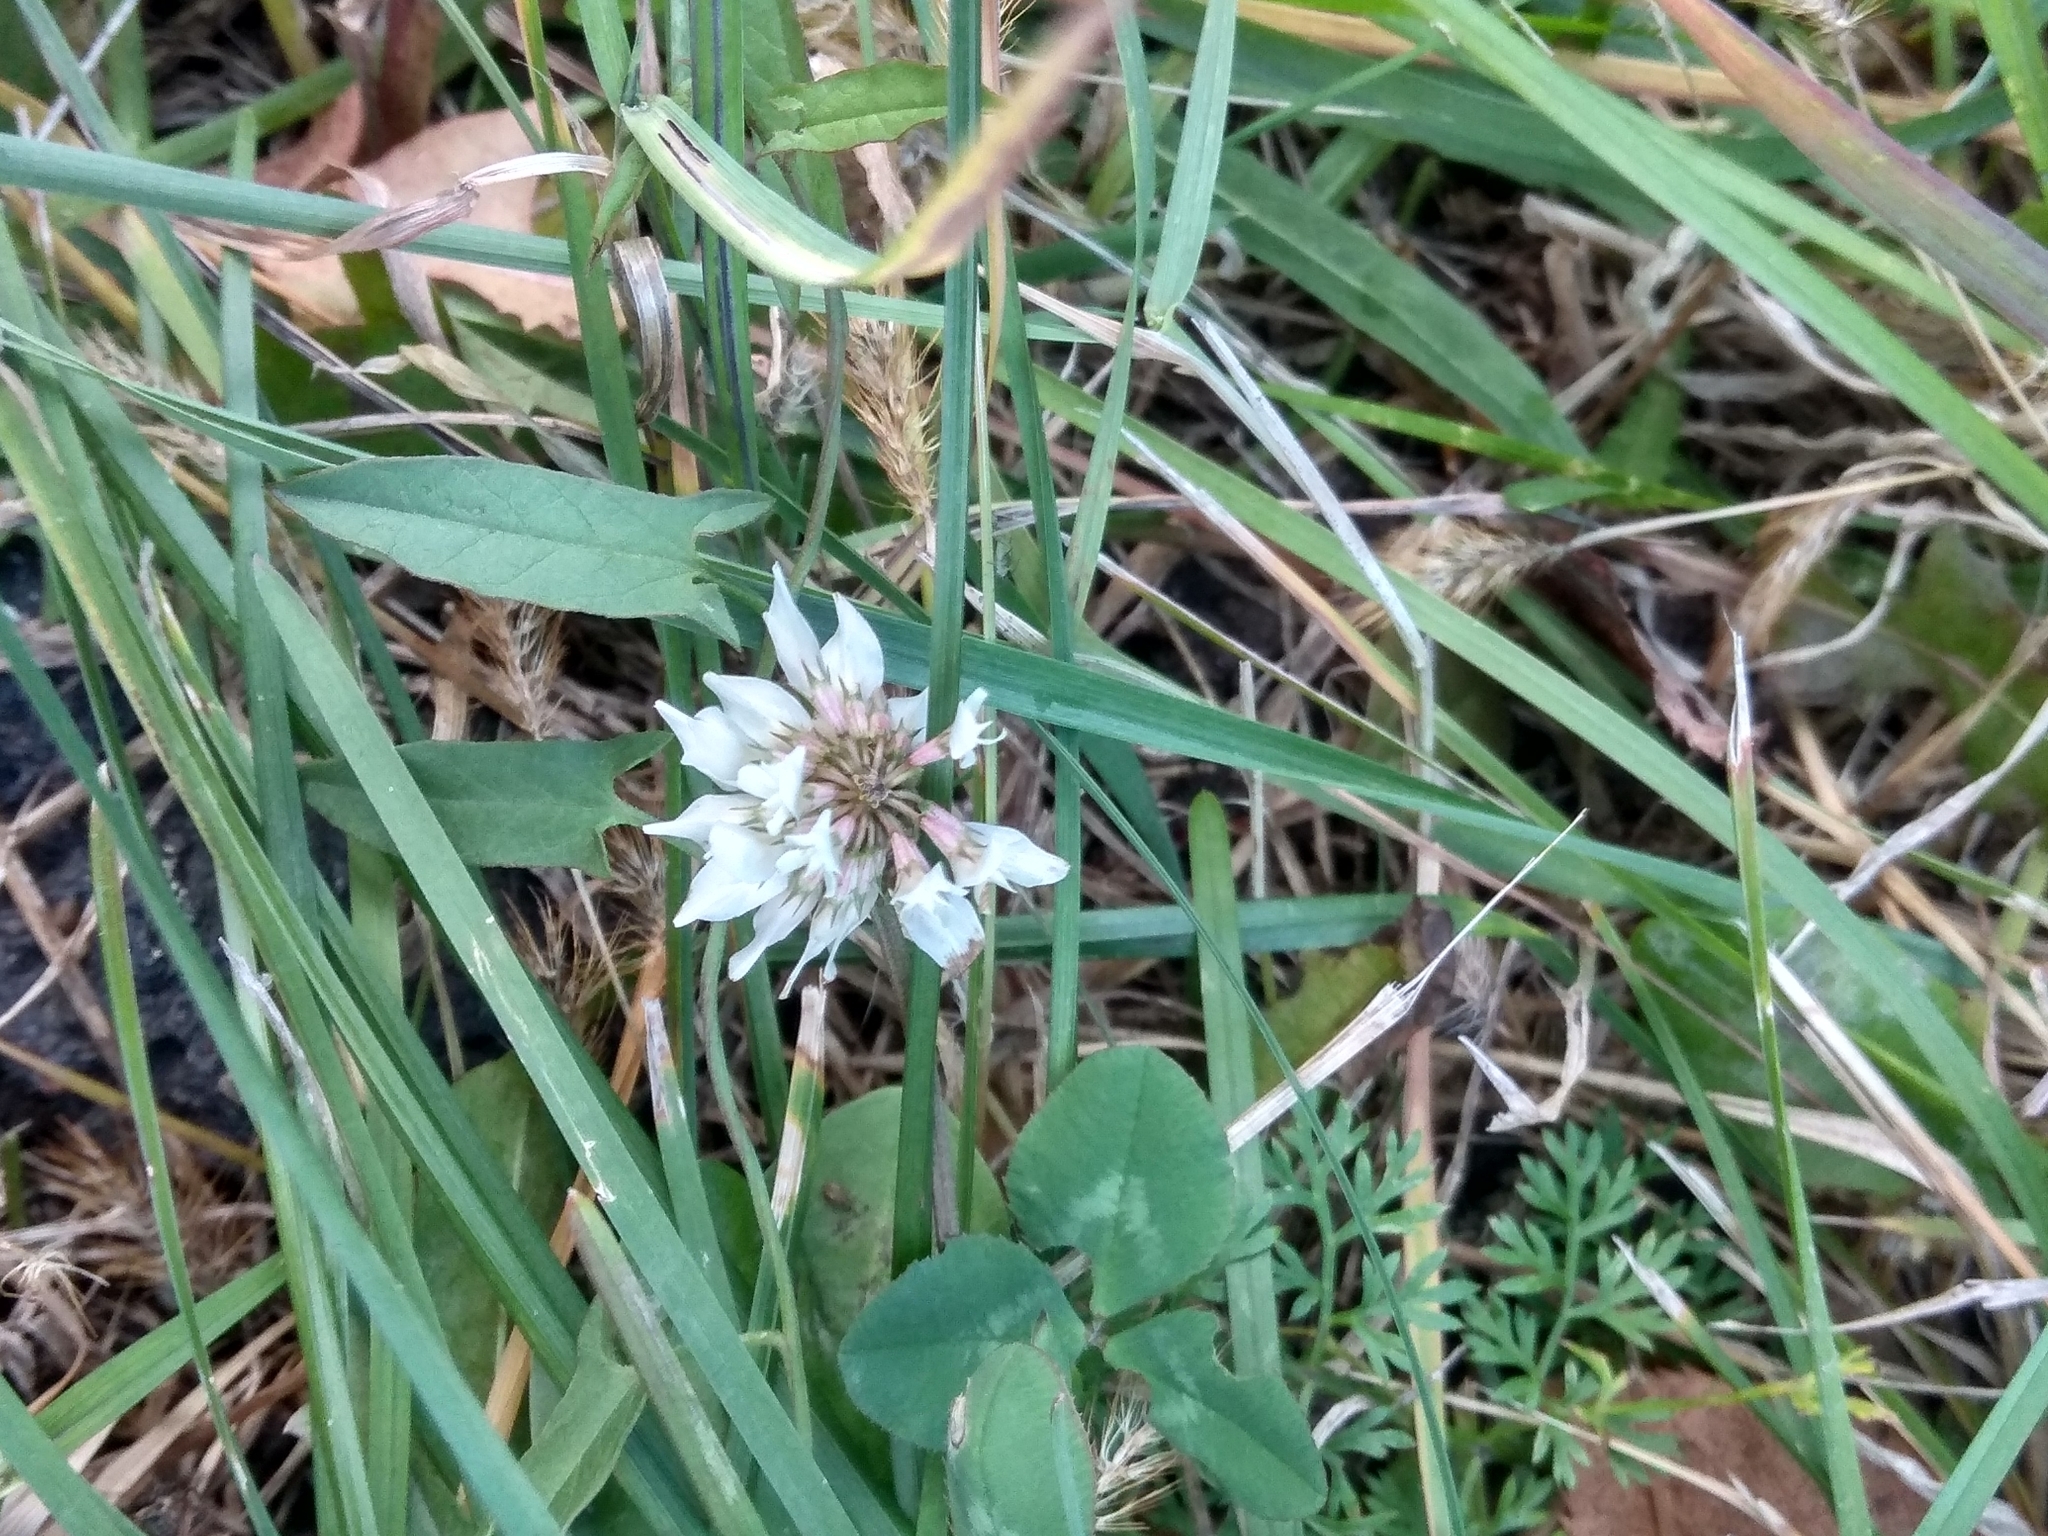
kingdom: Plantae
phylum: Tracheophyta
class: Magnoliopsida
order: Fabales
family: Fabaceae
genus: Trifolium
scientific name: Trifolium repens
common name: White clover
